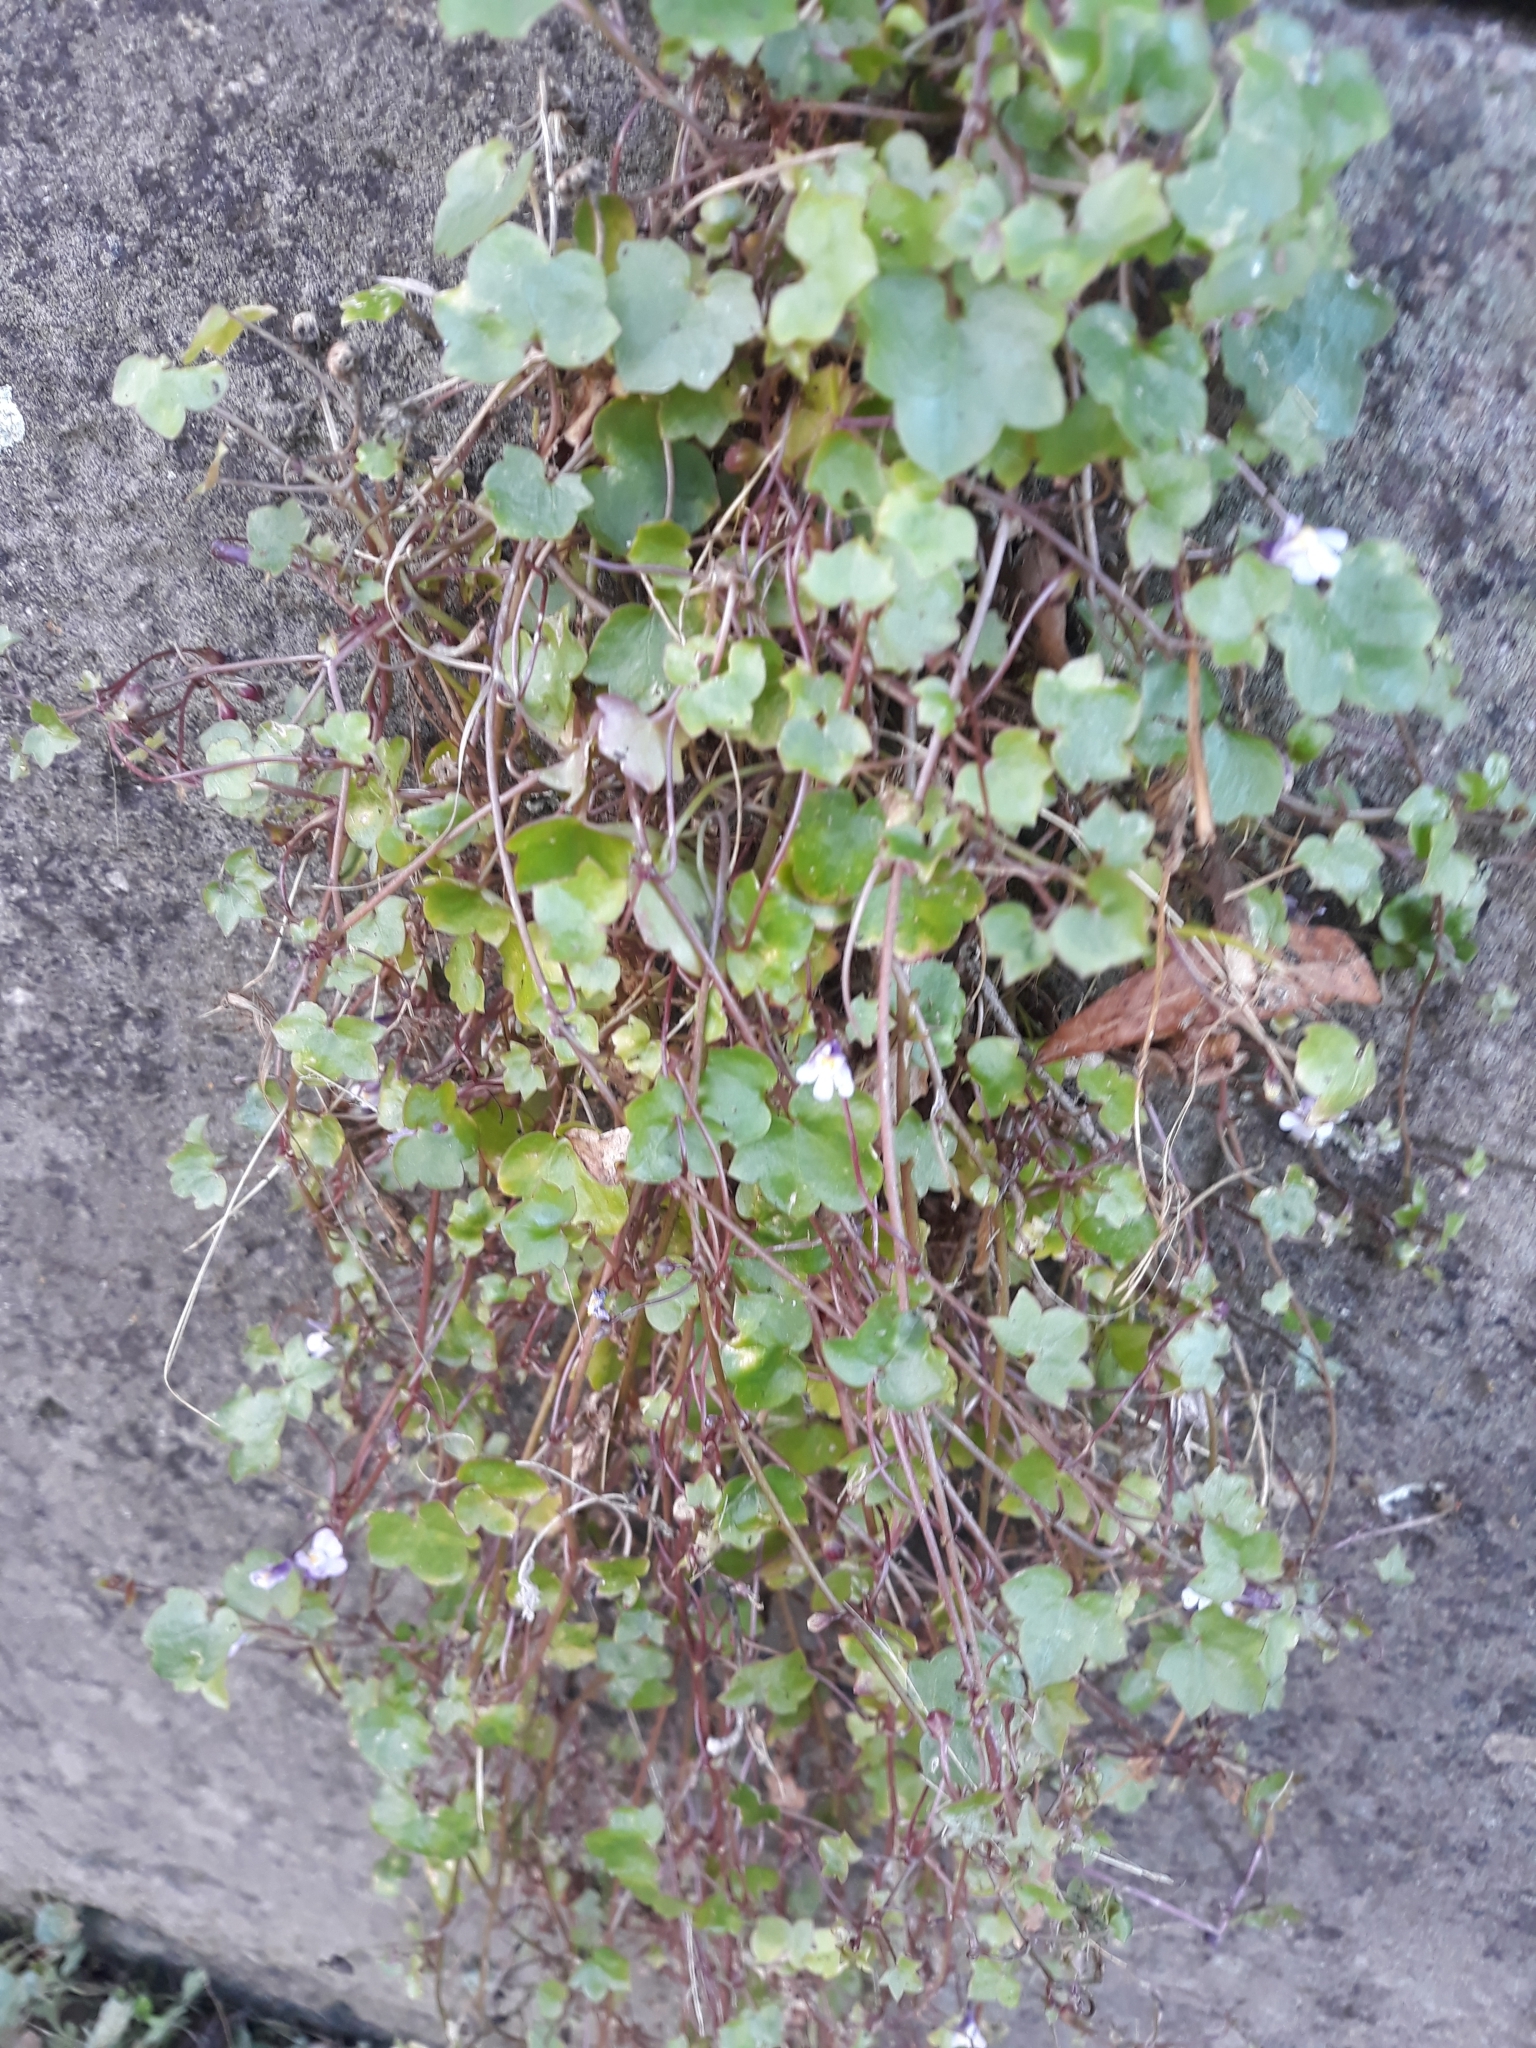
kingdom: Plantae
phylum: Tracheophyta
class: Magnoliopsida
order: Lamiales
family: Plantaginaceae
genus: Cymbalaria
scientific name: Cymbalaria muralis
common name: Ivy-leaved toadflax
